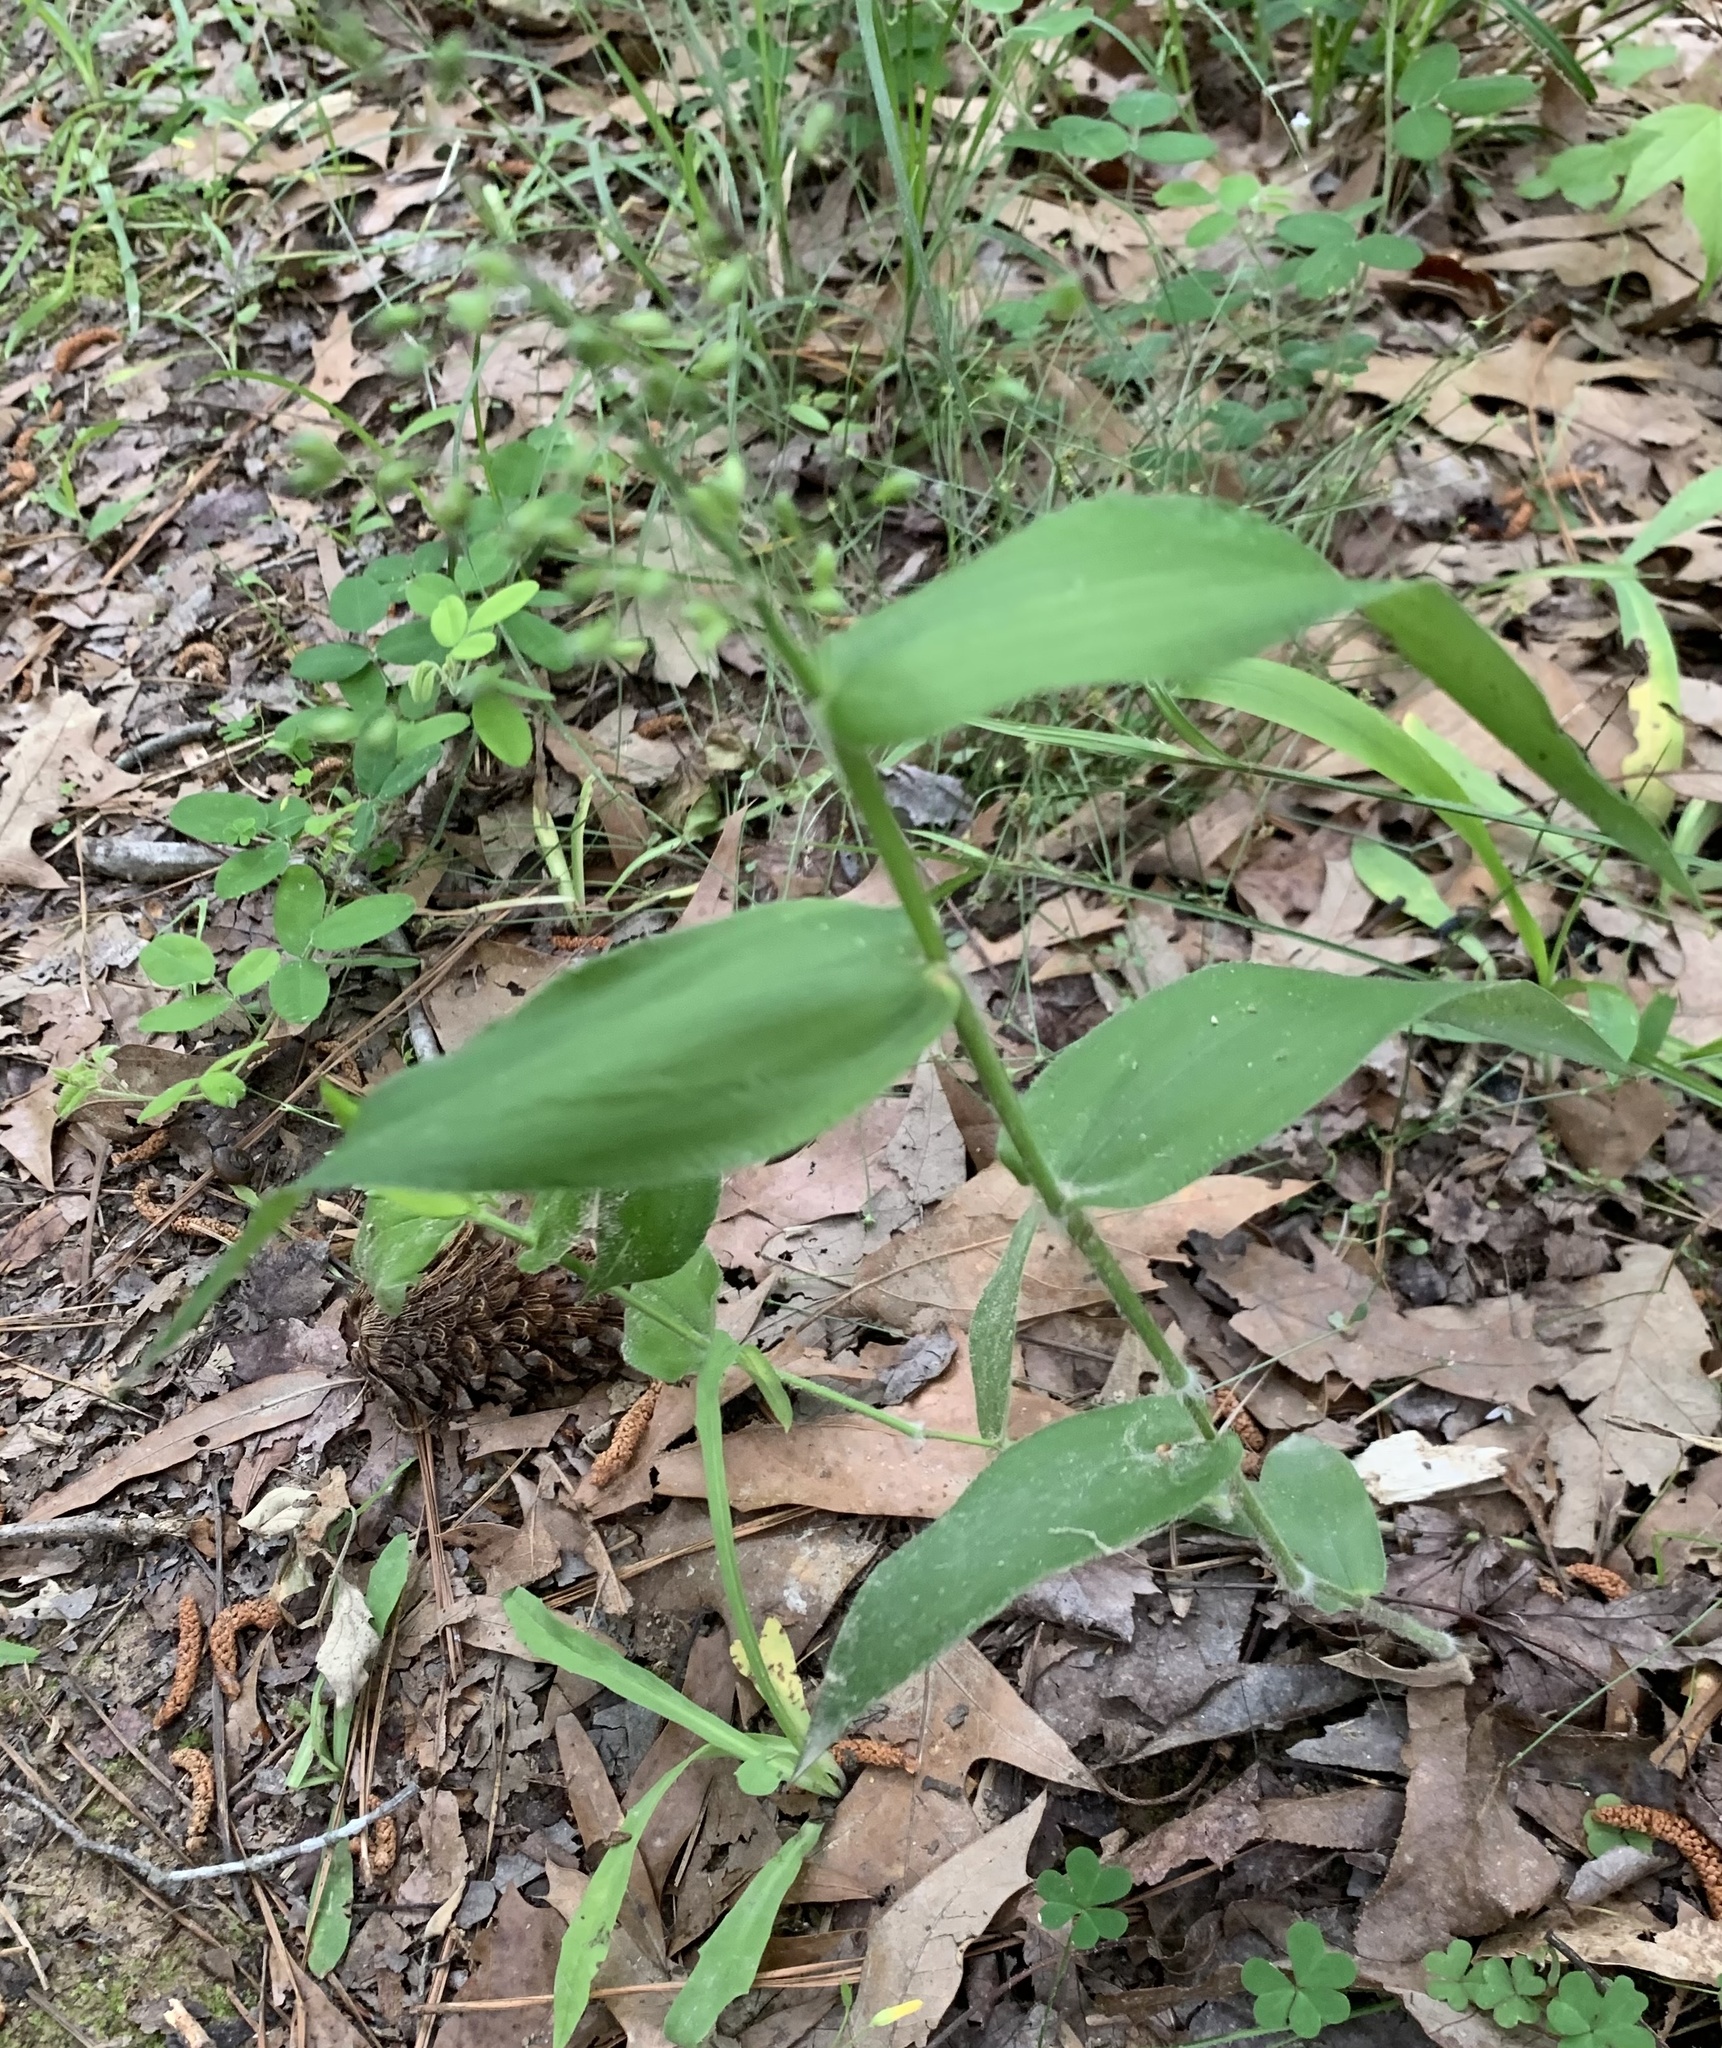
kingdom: Plantae
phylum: Tracheophyta
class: Liliopsida
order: Poales
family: Poaceae
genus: Dichanthelium
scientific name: Dichanthelium boscii
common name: Bosc's panic grass
